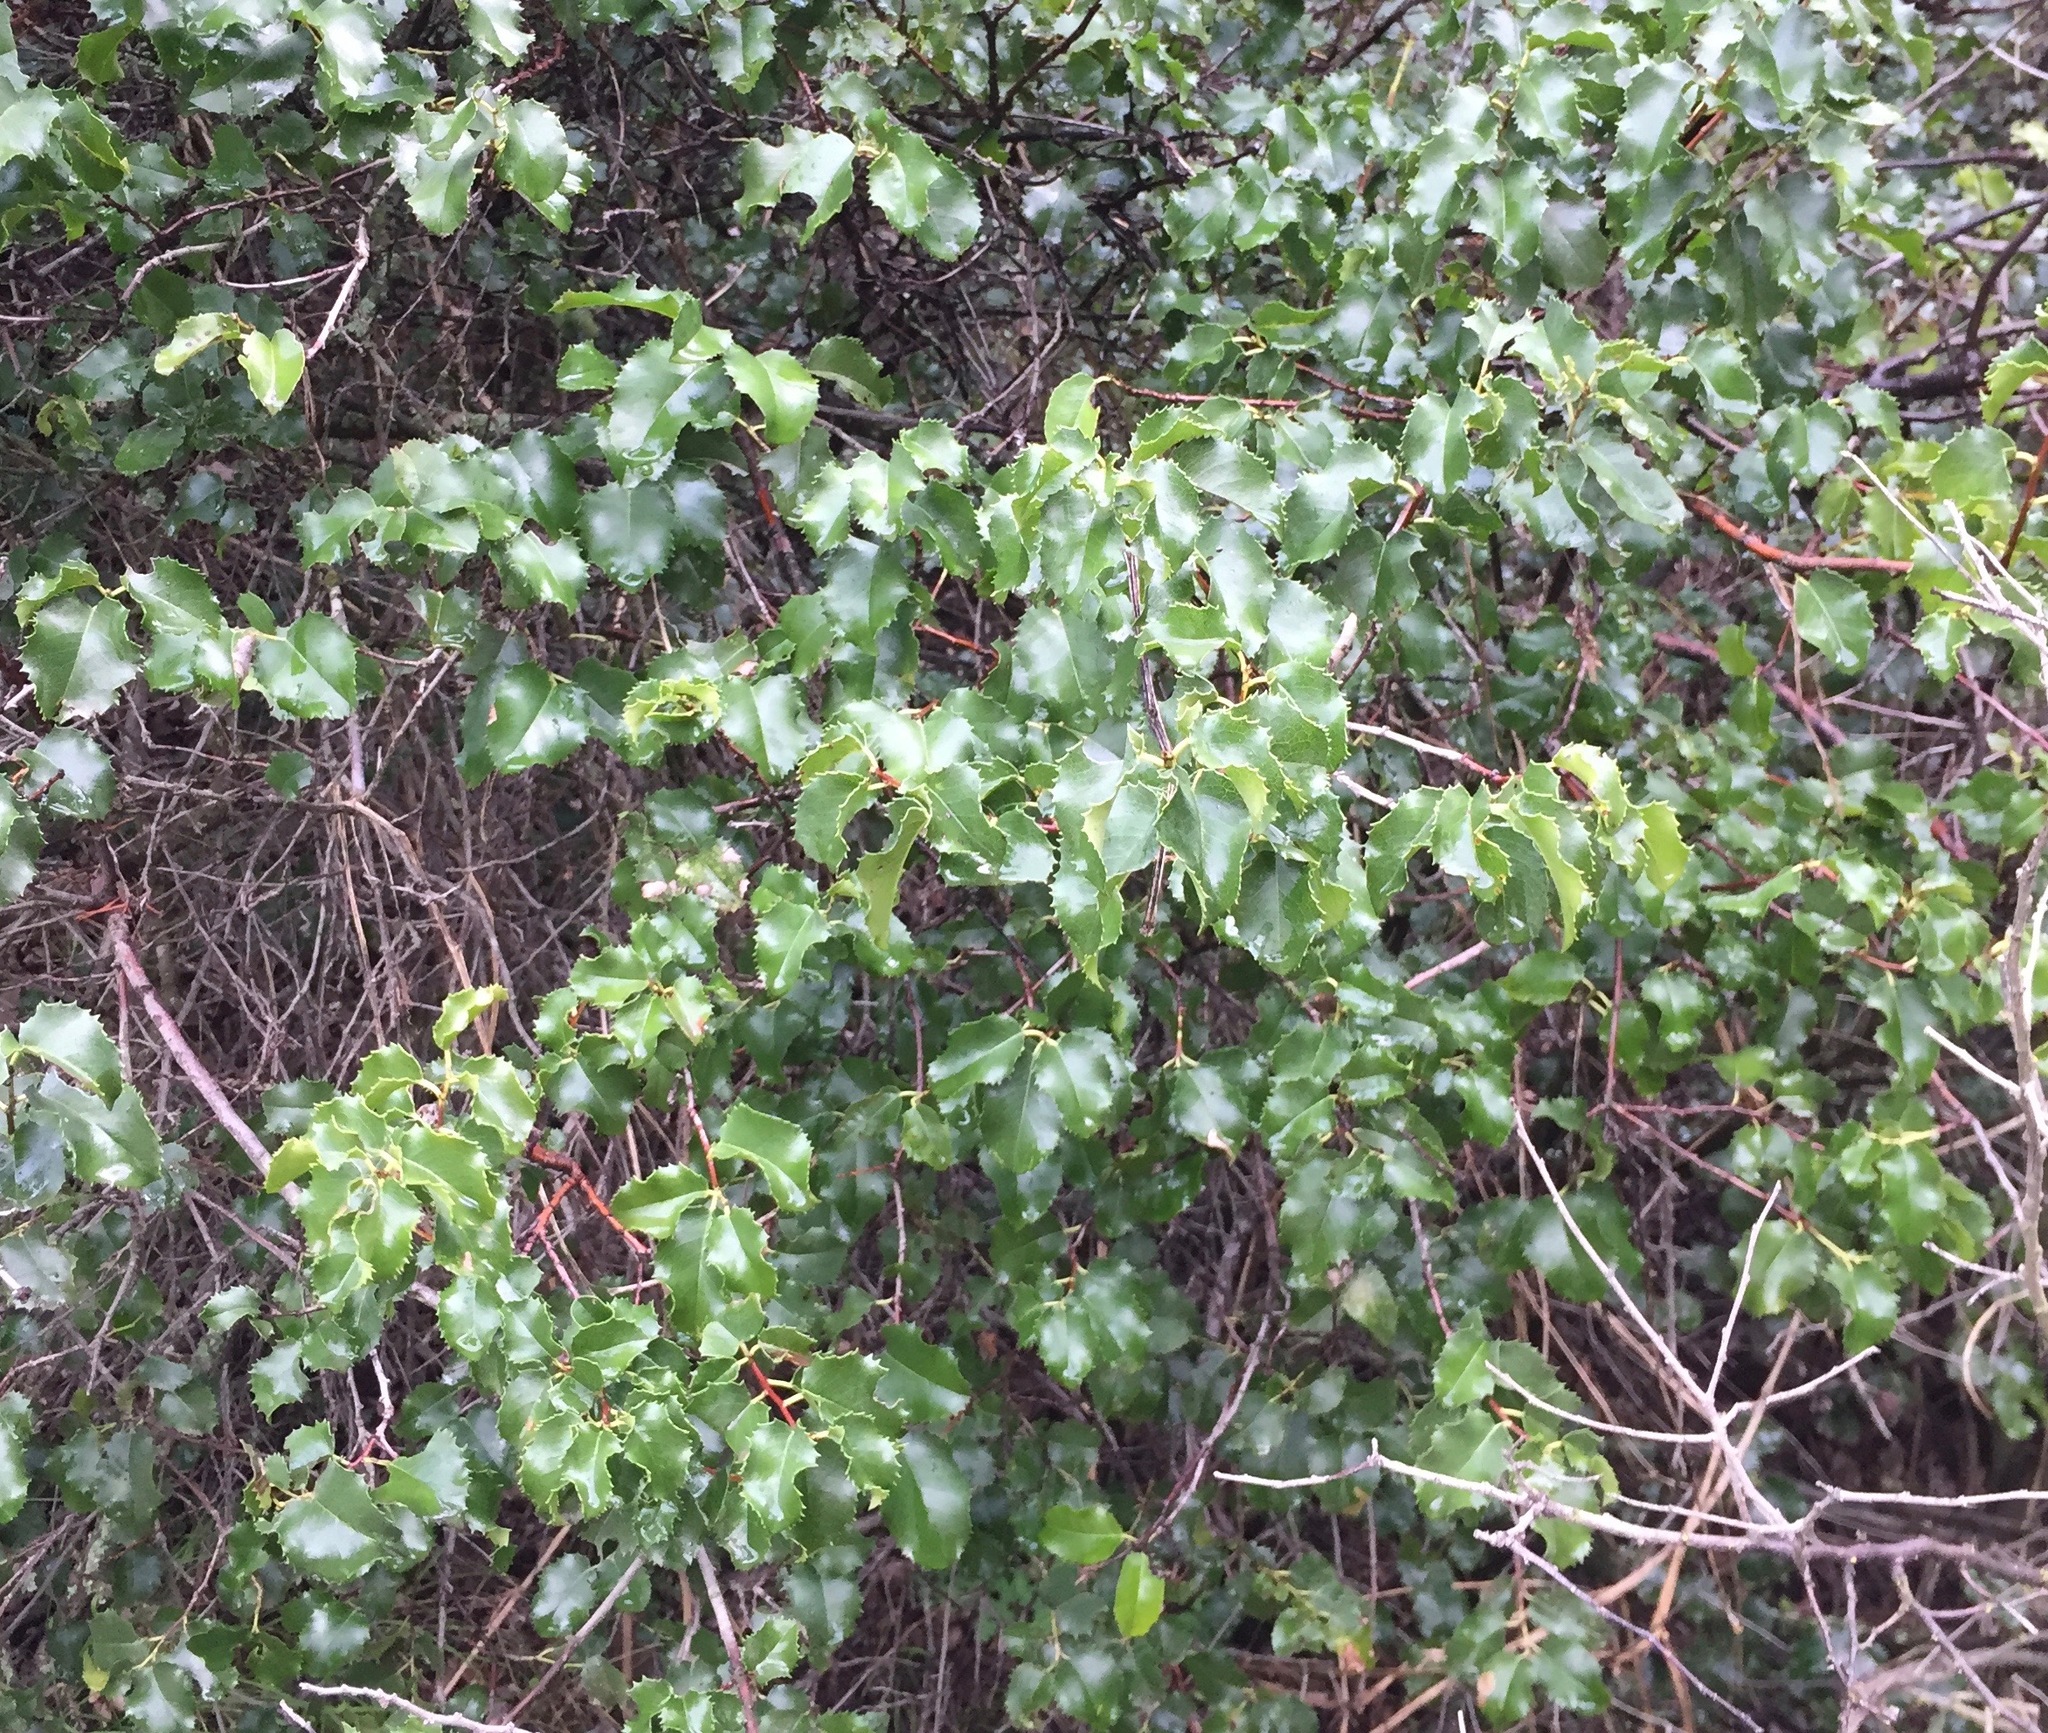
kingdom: Plantae
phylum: Tracheophyta
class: Magnoliopsida
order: Rosales
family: Rosaceae
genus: Prunus
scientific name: Prunus ilicifolia
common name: Hollyleaf cherry
